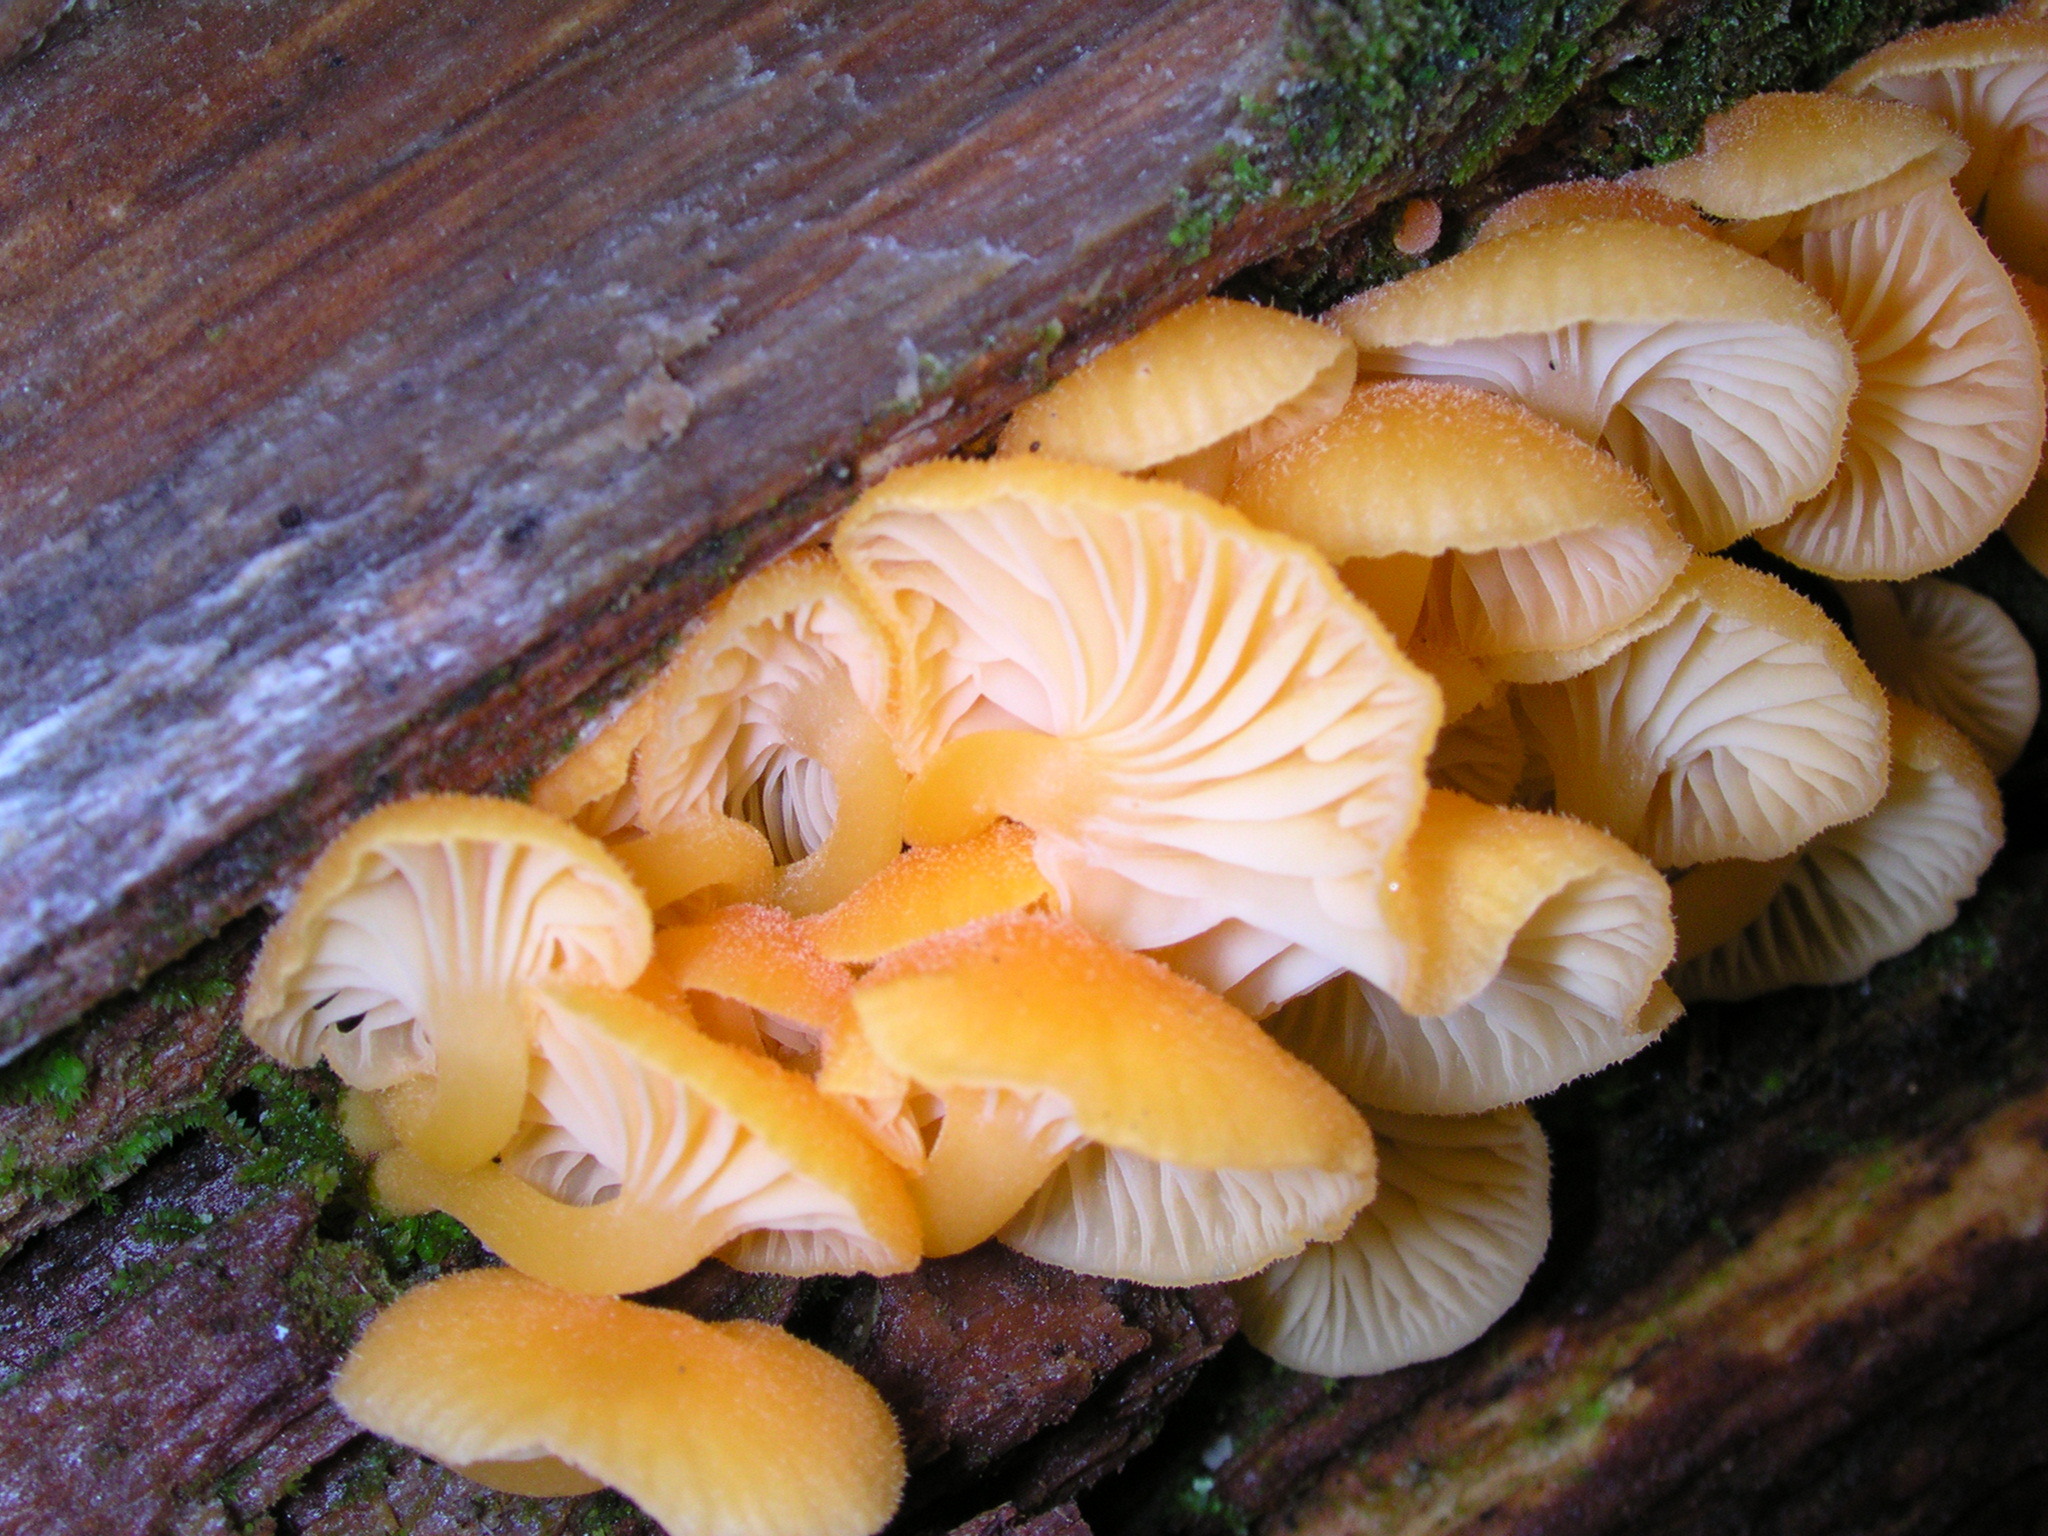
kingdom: Fungi
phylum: Basidiomycota
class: Agaricomycetes
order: Agaricales
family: Hygrophoraceae
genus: Chrysomphalina
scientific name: Chrysomphalina aurantiaca
